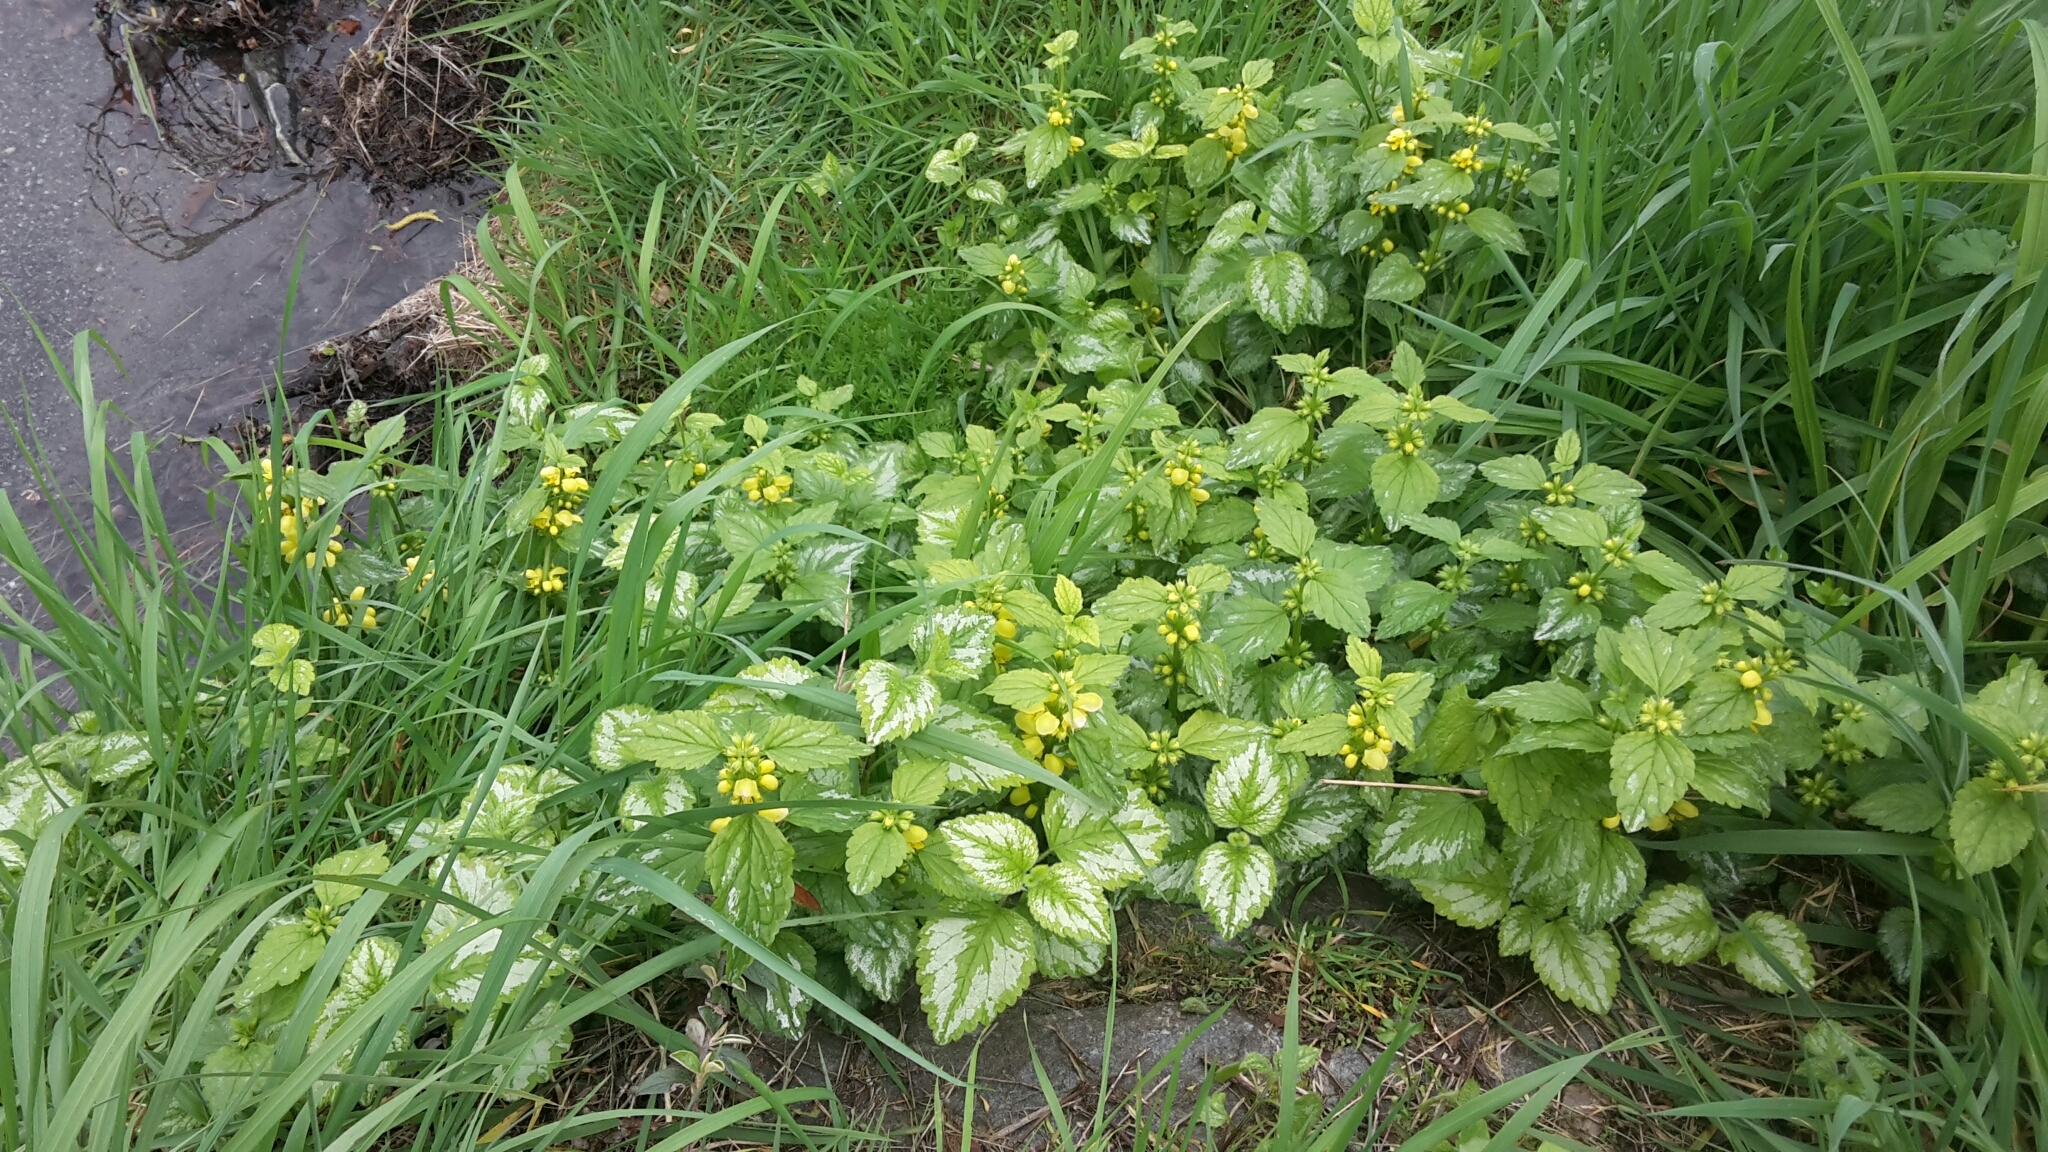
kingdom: Plantae
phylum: Tracheophyta
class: Magnoliopsida
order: Lamiales
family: Lamiaceae
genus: Lamium
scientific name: Lamium galeobdolon
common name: Yellow archangel
